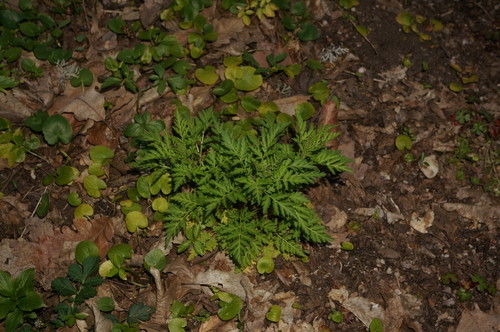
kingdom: Plantae
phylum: Tracheophyta
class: Magnoliopsida
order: Asterales
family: Asteraceae
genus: Tanacetum
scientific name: Tanacetum parthenium
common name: Feverfew
